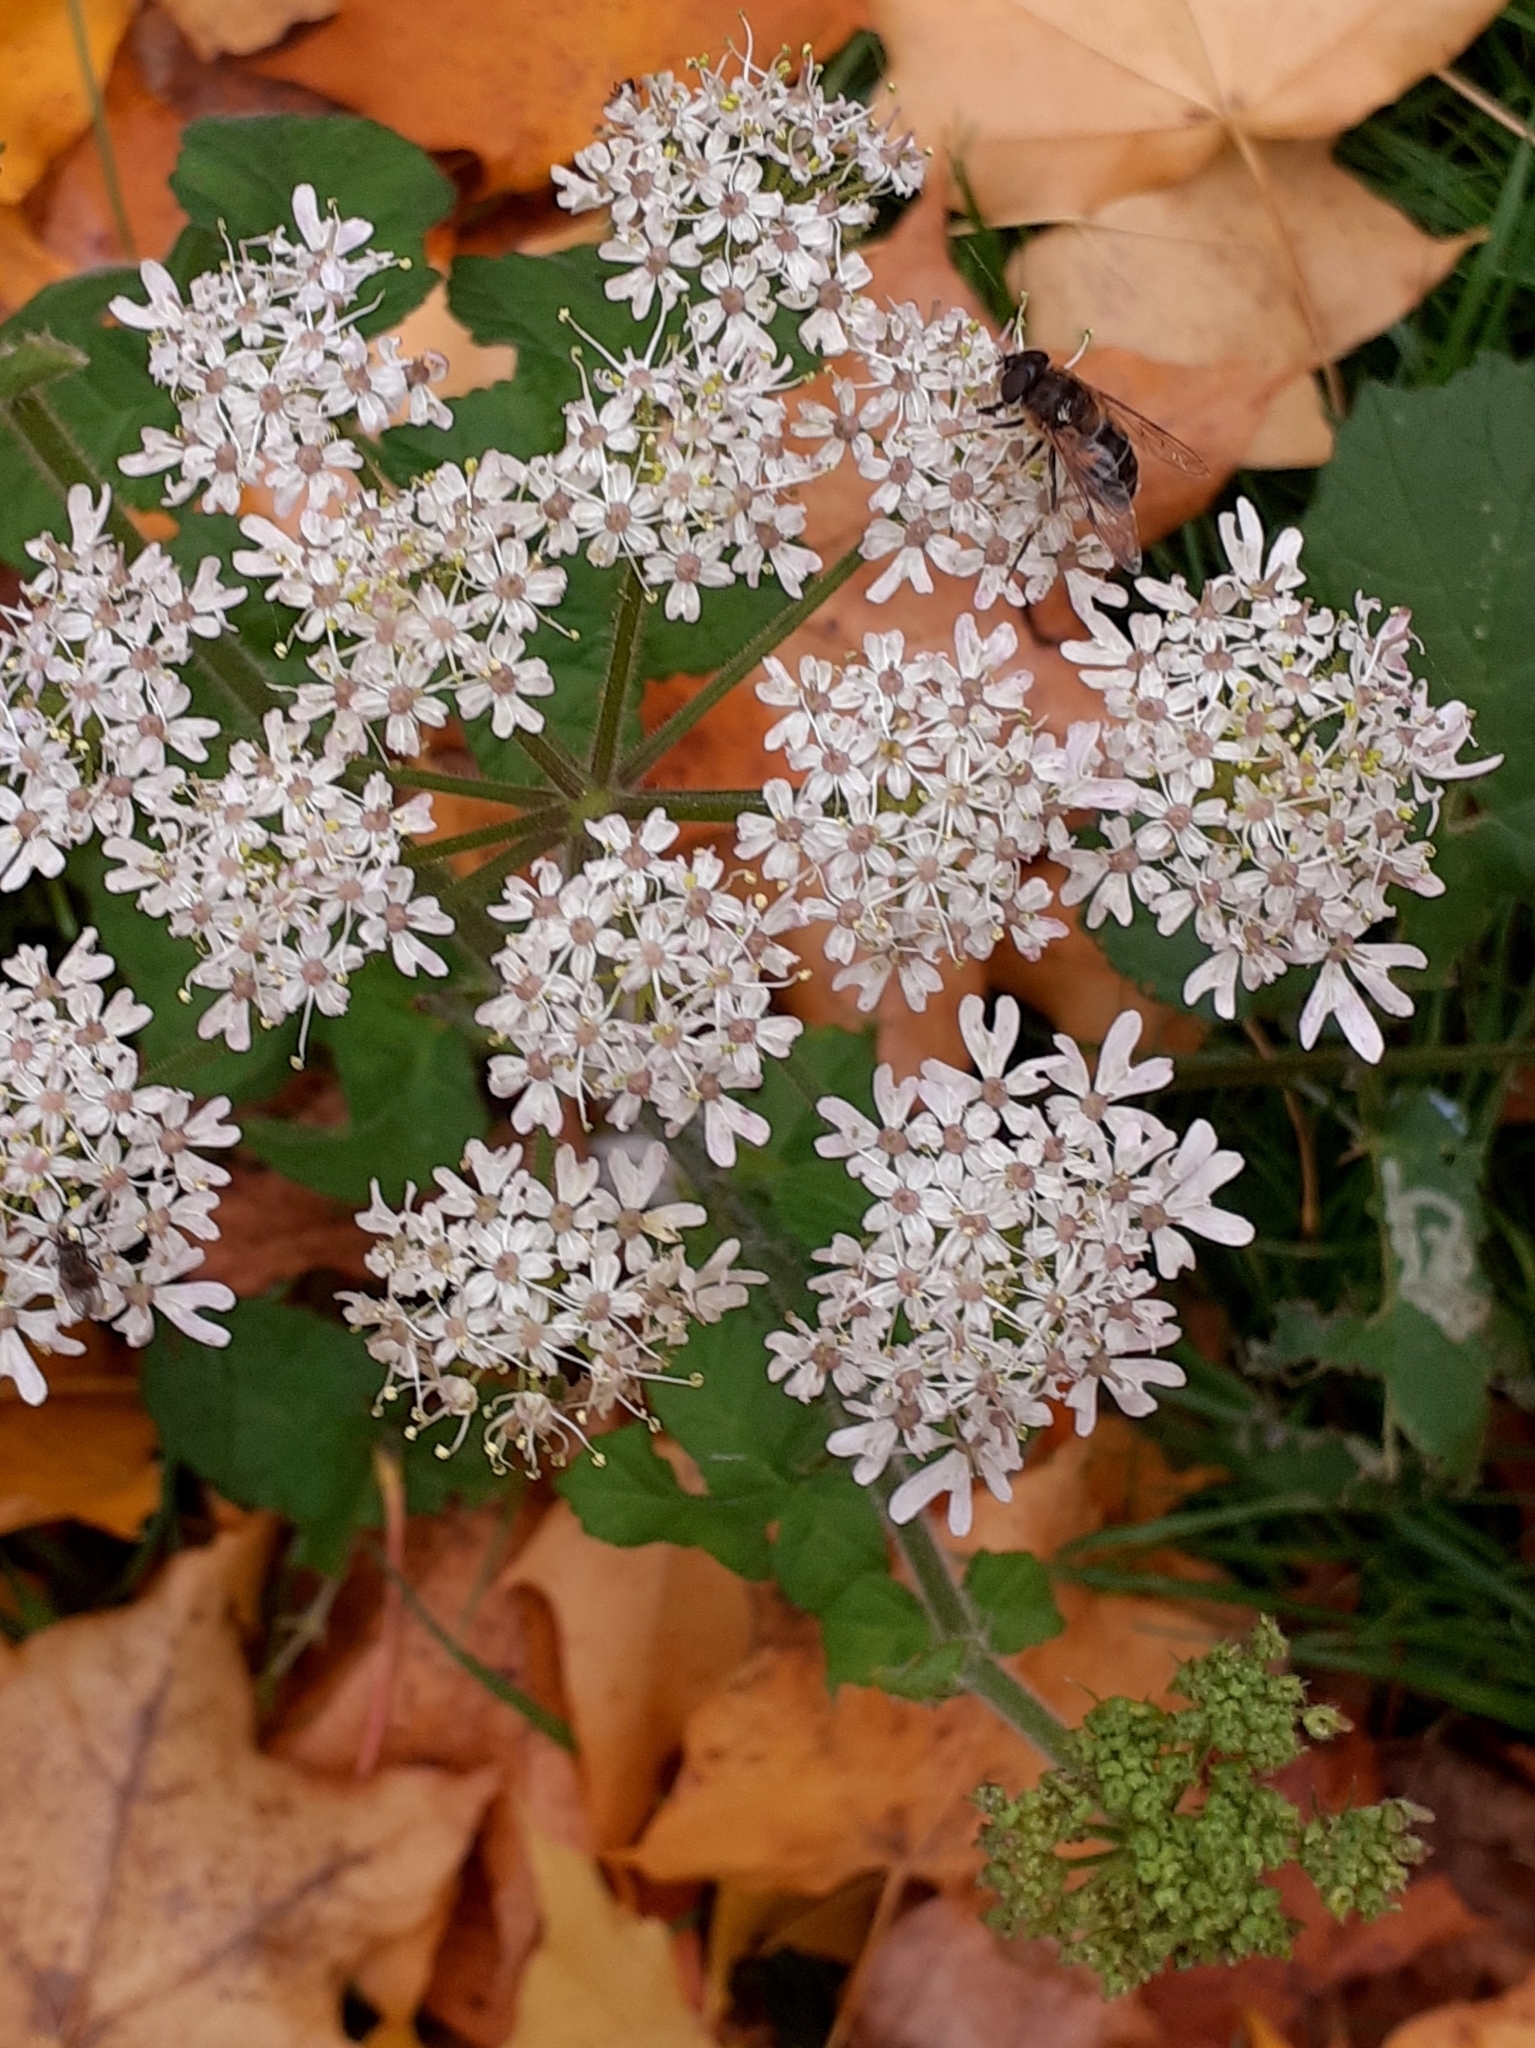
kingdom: Plantae
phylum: Tracheophyta
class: Magnoliopsida
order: Apiales
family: Apiaceae
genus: Heracleum
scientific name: Heracleum sphondylium
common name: Hogweed
